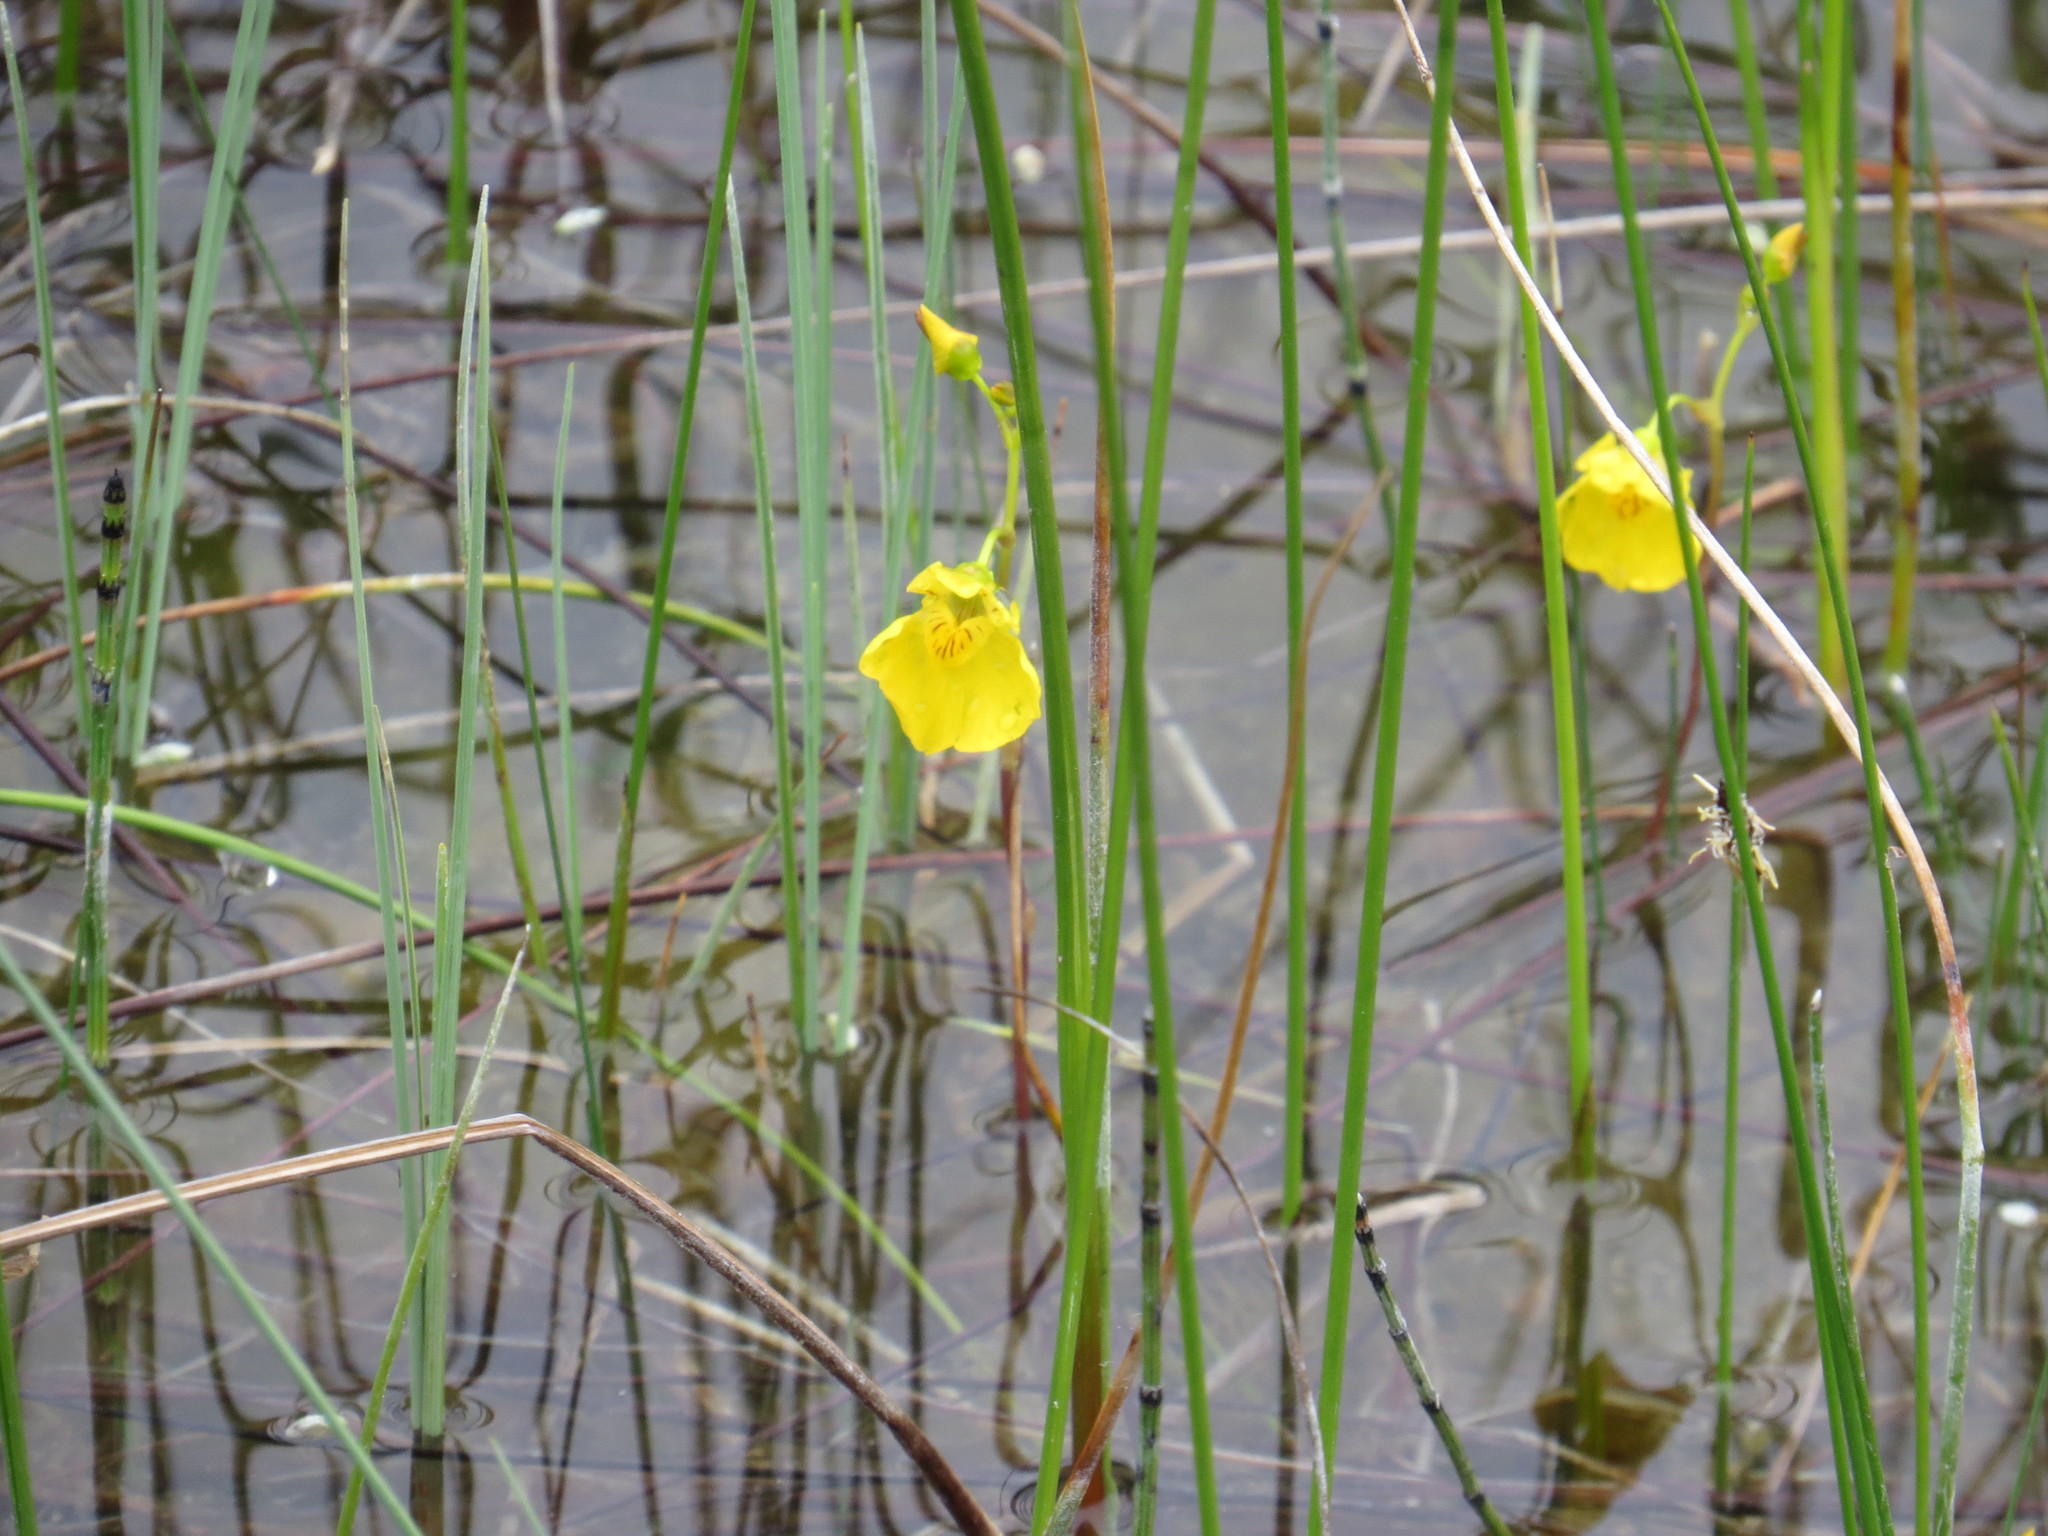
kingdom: Plantae
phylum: Tracheophyta
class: Magnoliopsida
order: Lamiales
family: Lentibulariaceae
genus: Utricularia
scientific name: Utricularia macrorhiza
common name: Common bladderwort
